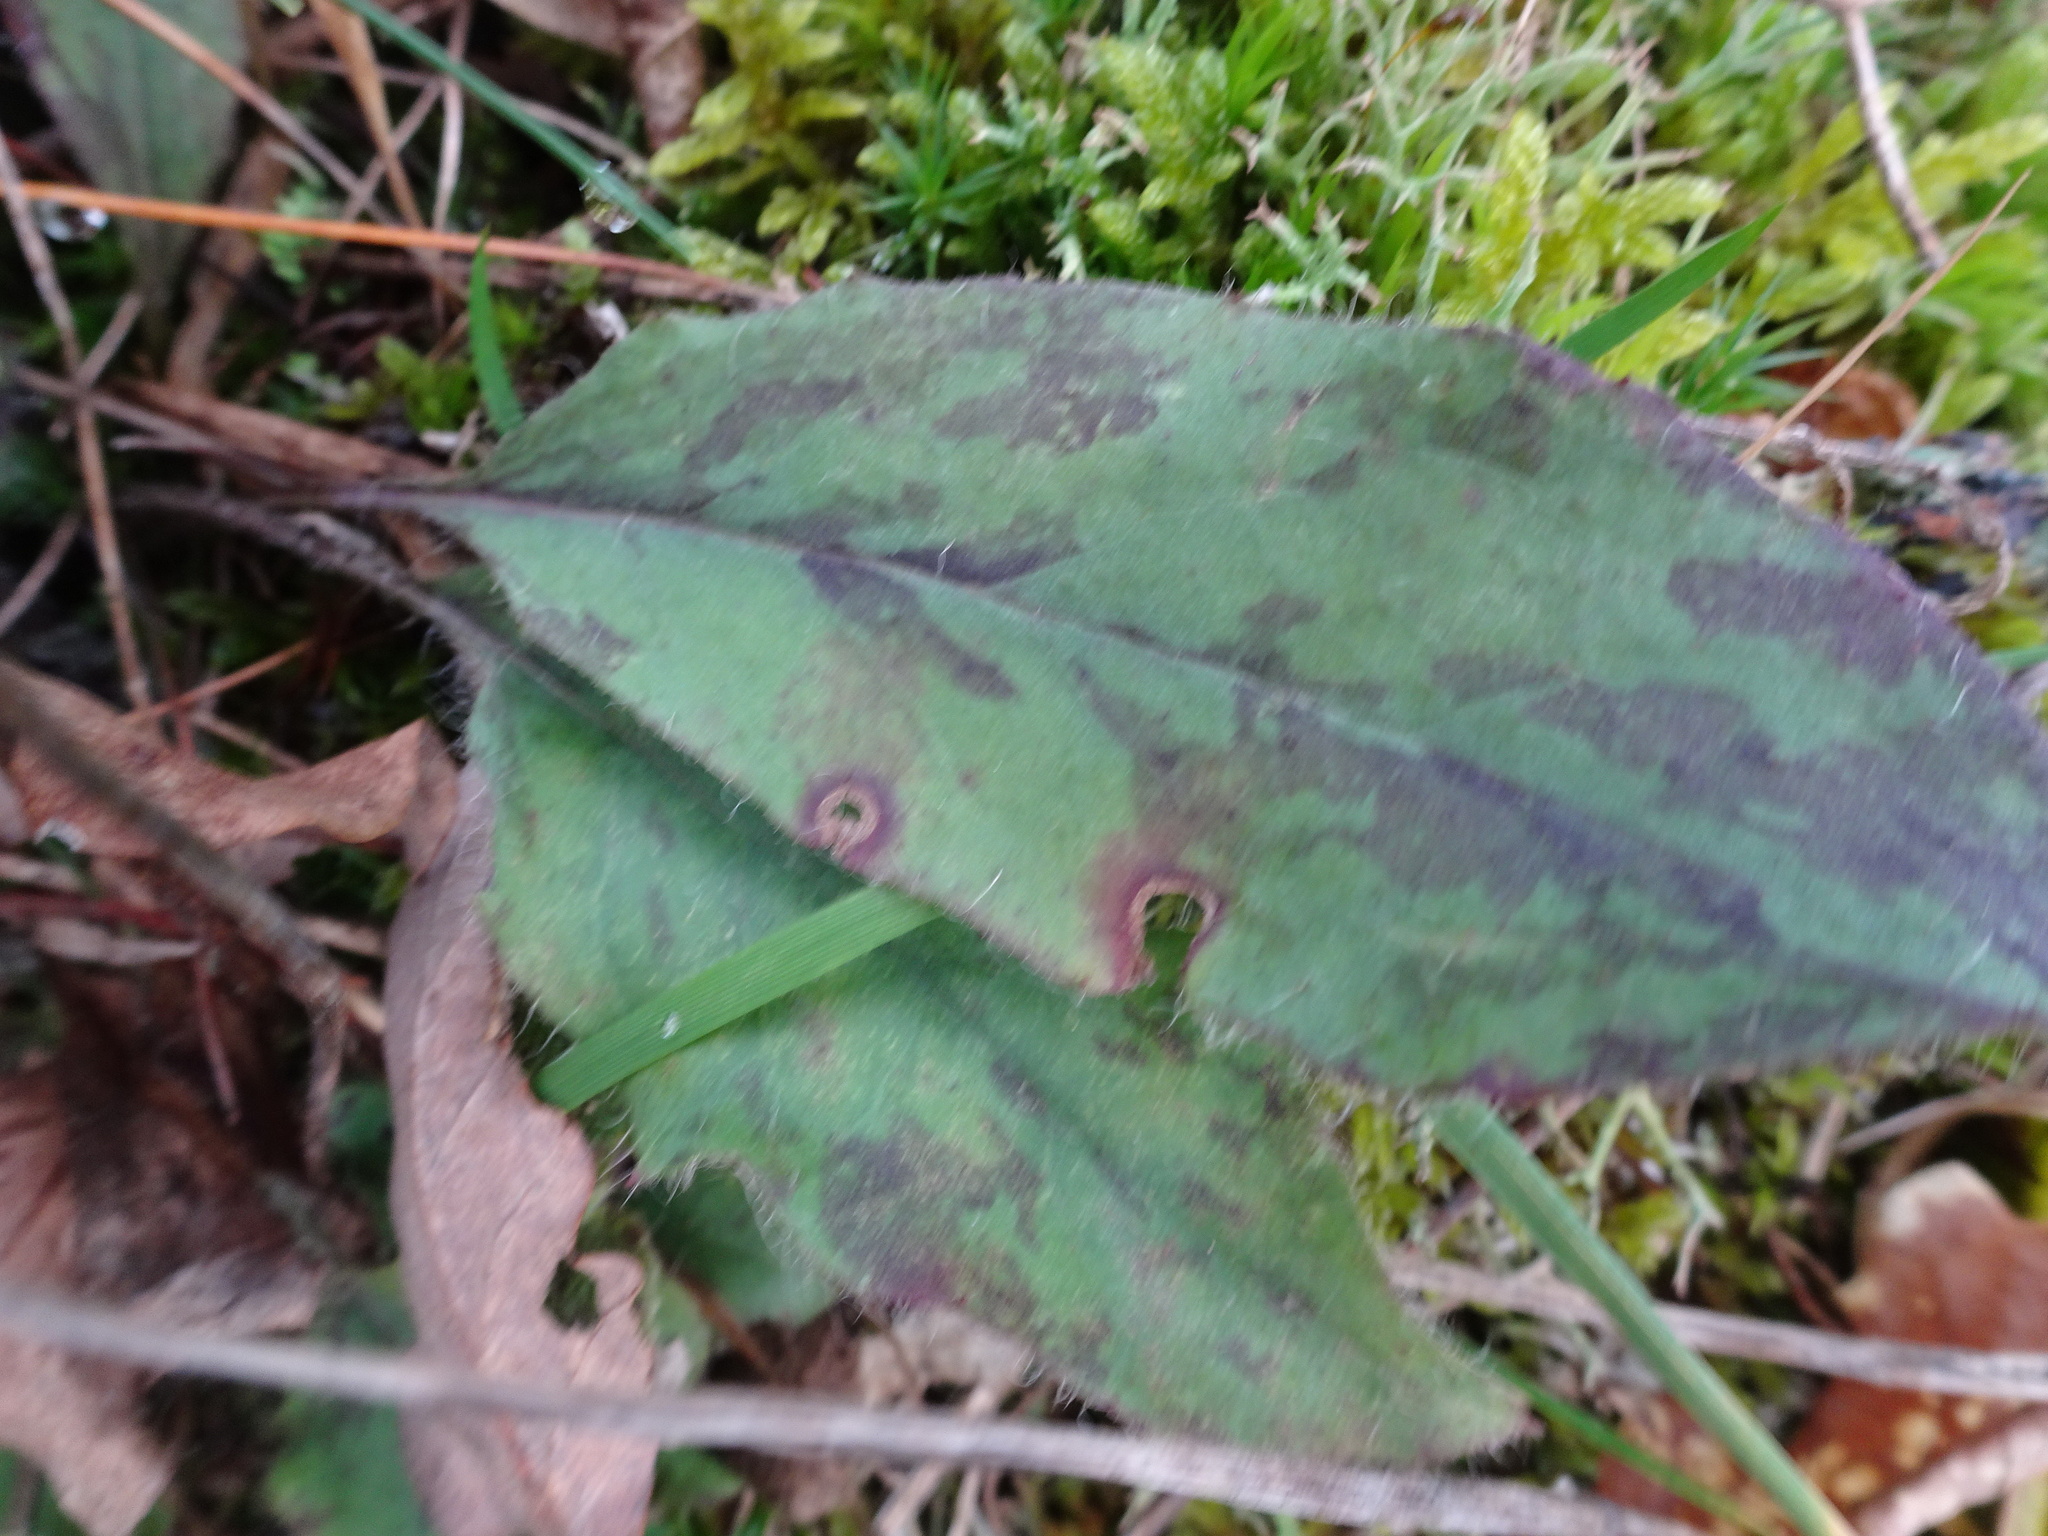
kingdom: Plantae
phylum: Tracheophyta
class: Magnoliopsida
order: Asterales
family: Asteraceae
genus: Hieracium
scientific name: Hieracium maculatum
